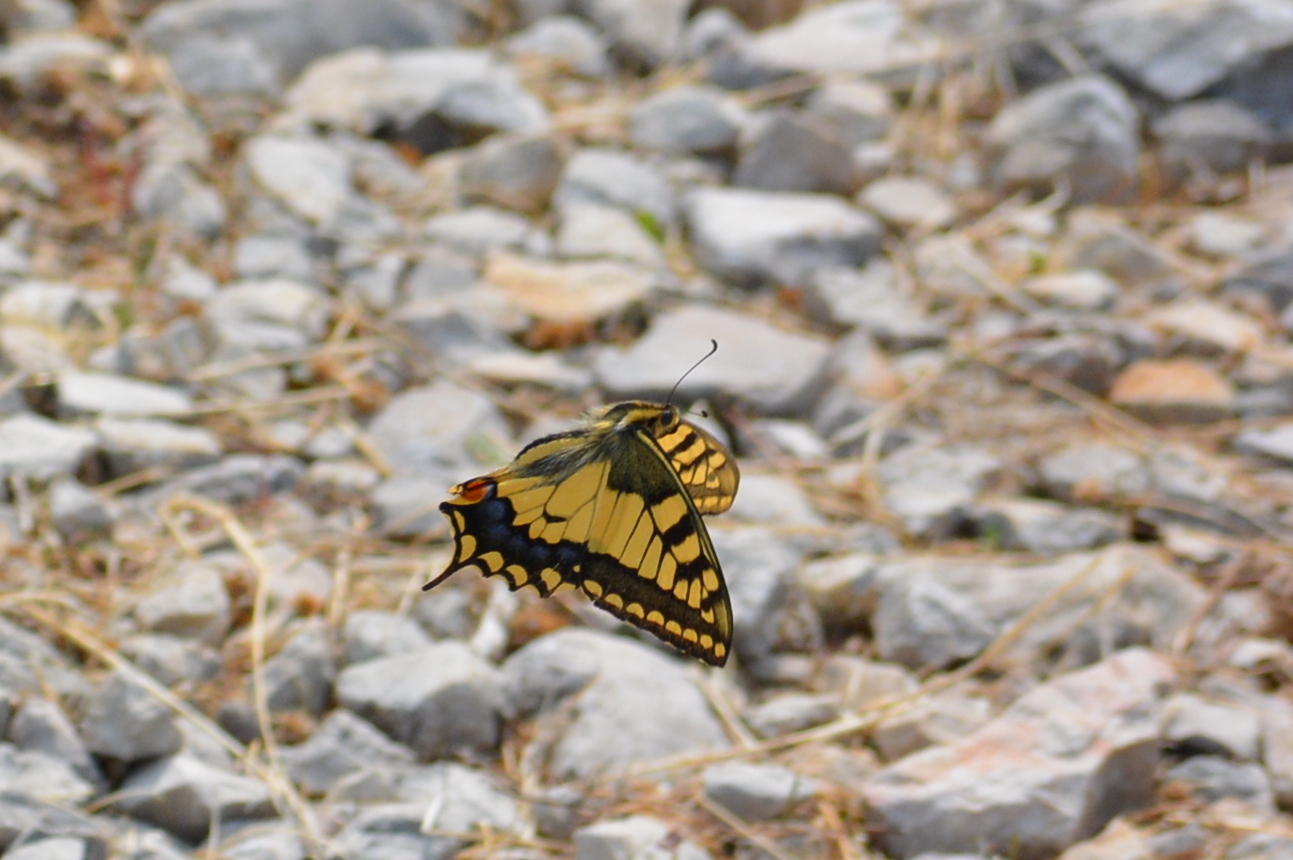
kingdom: Animalia
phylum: Arthropoda
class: Insecta
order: Lepidoptera
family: Papilionidae
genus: Papilio
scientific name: Papilio machaon
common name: Swallowtail
